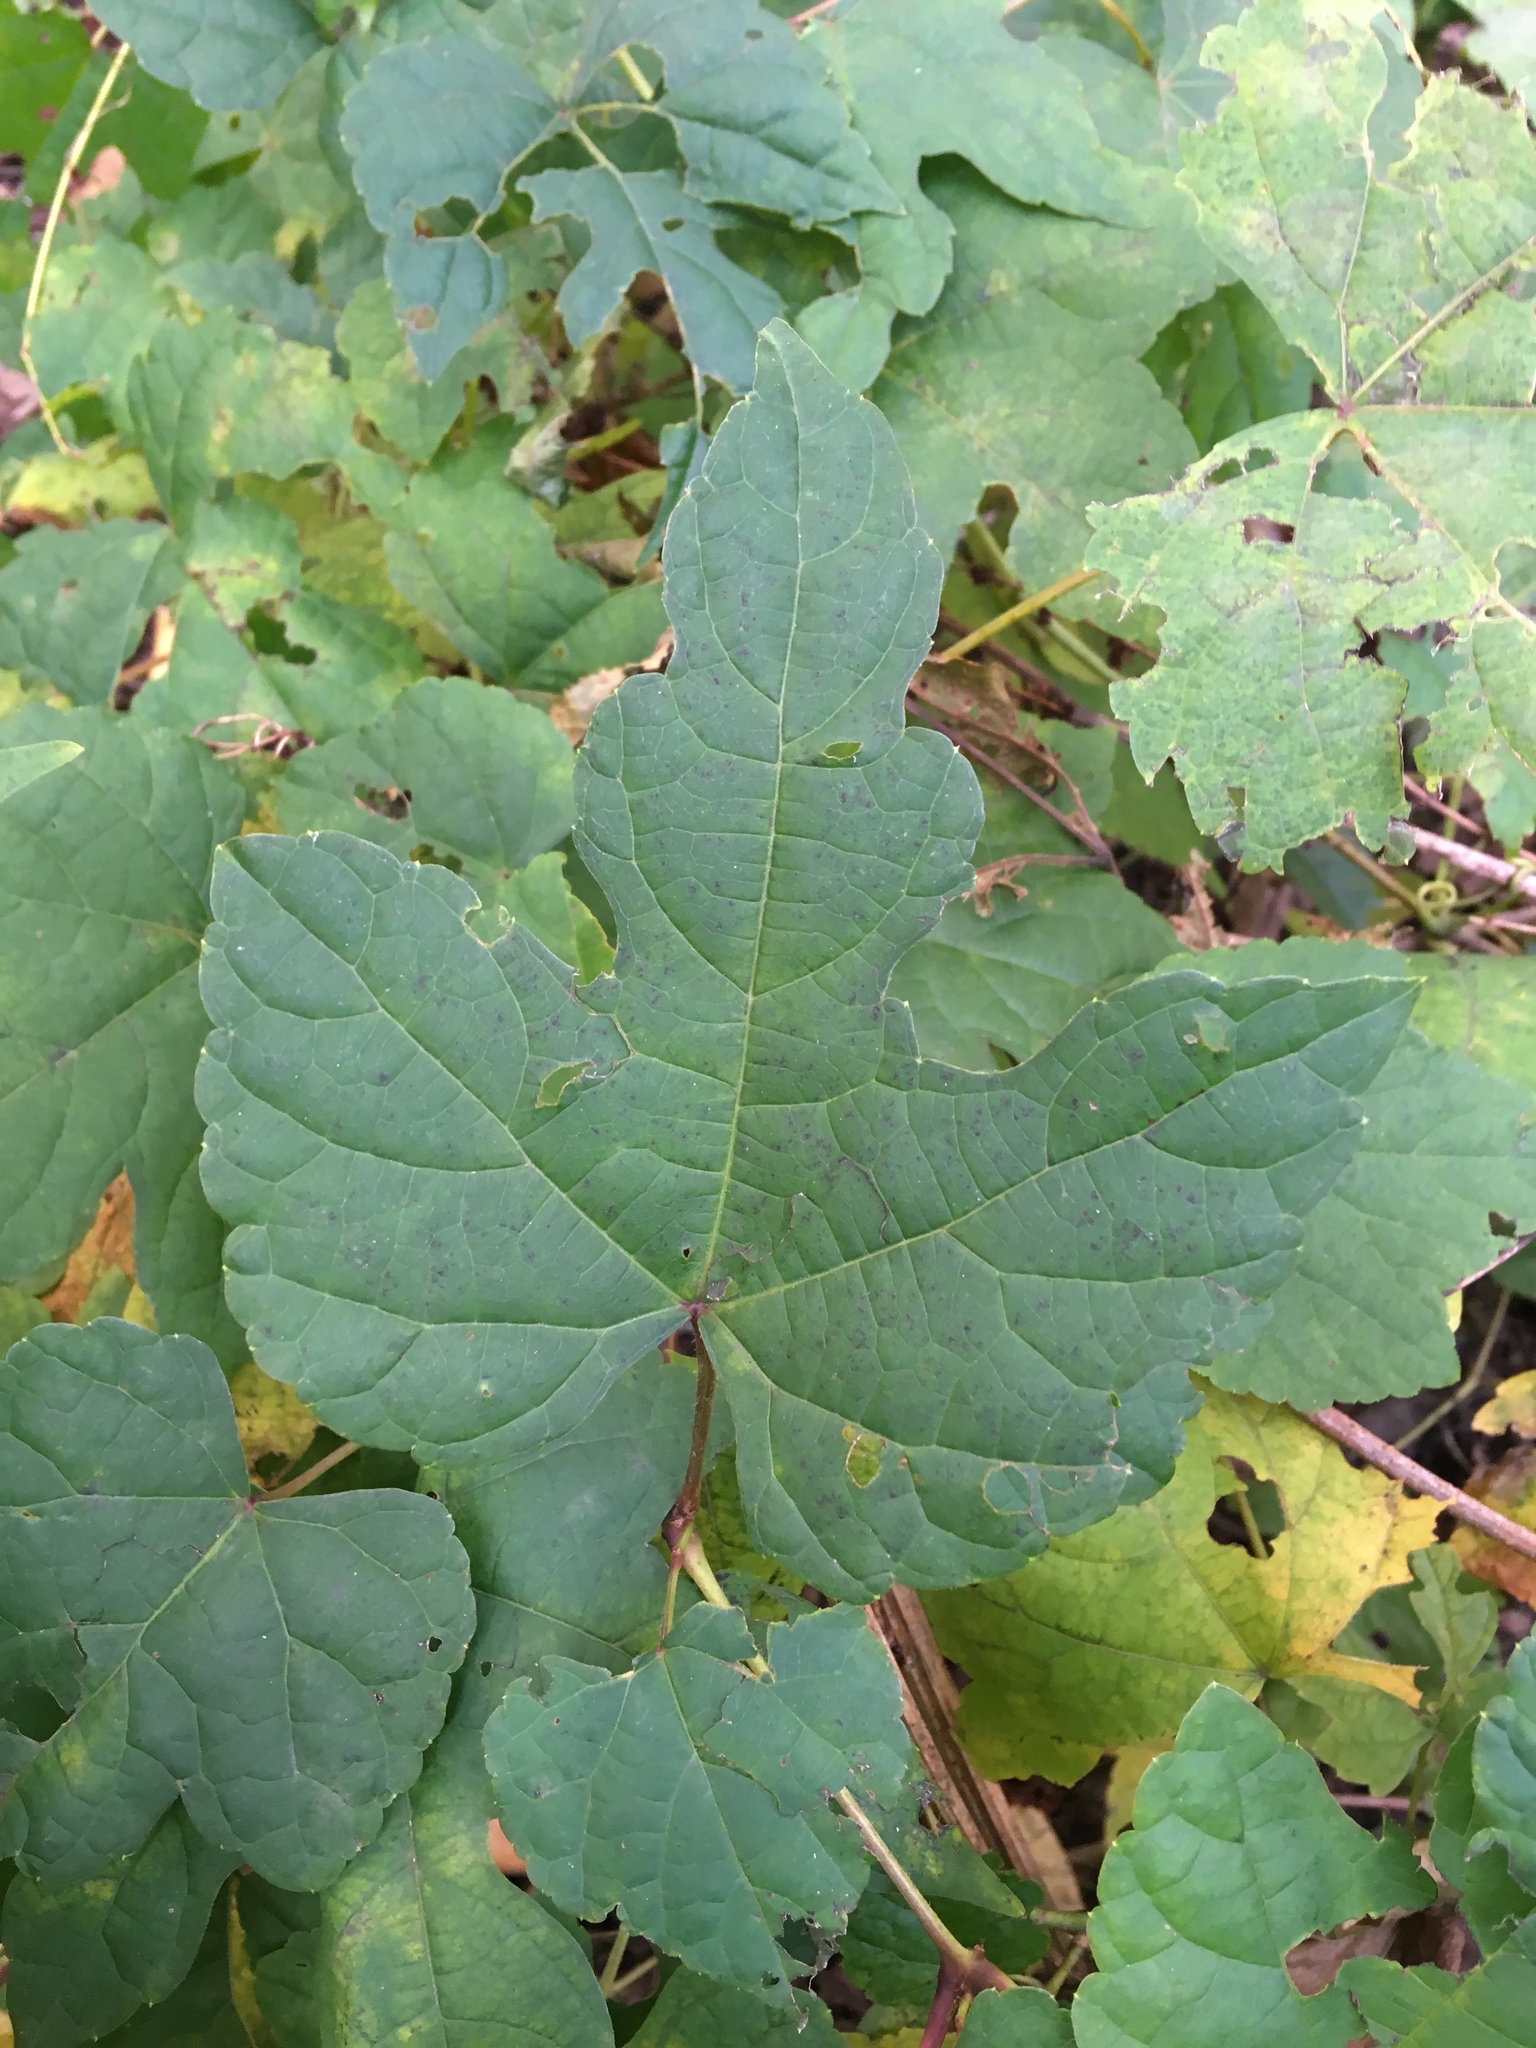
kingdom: Plantae
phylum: Tracheophyta
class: Magnoliopsida
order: Vitales
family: Vitaceae
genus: Ampelopsis
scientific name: Ampelopsis glandulosa
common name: Amur peppervine
